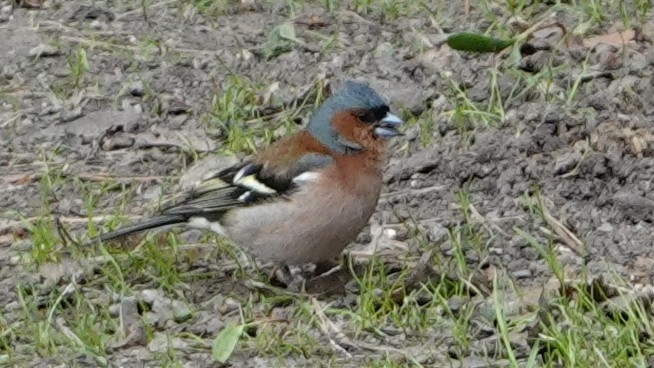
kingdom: Animalia
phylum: Chordata
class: Aves
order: Passeriformes
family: Fringillidae
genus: Fringilla
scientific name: Fringilla coelebs
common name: Common chaffinch
